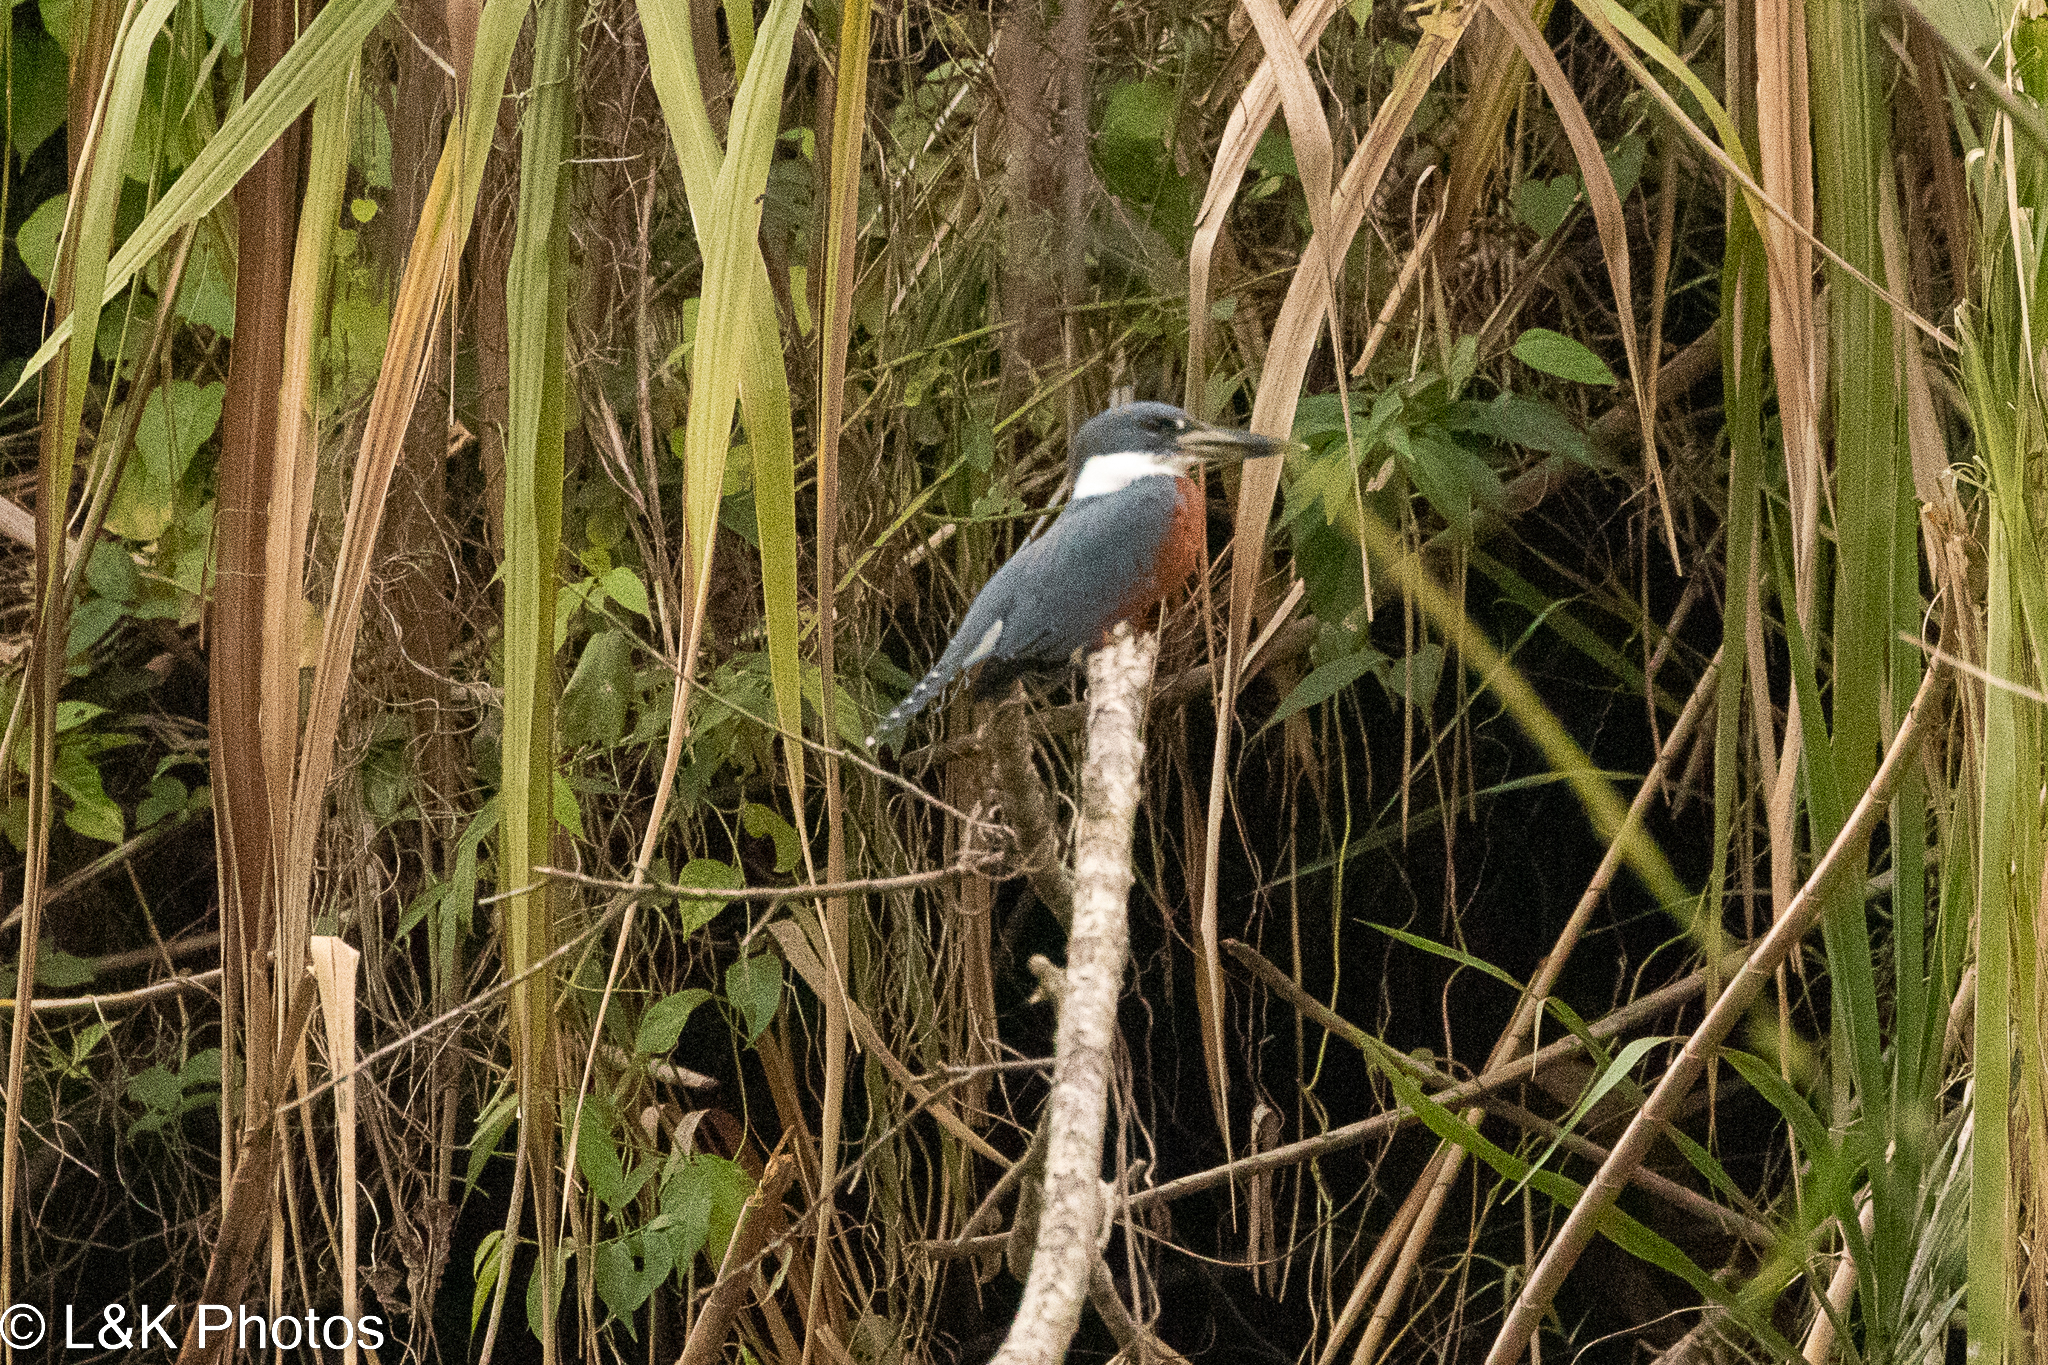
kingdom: Animalia
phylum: Chordata
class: Aves
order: Coraciiformes
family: Alcedinidae
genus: Megaceryle
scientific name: Megaceryle torquata
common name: Ringed kingfisher
